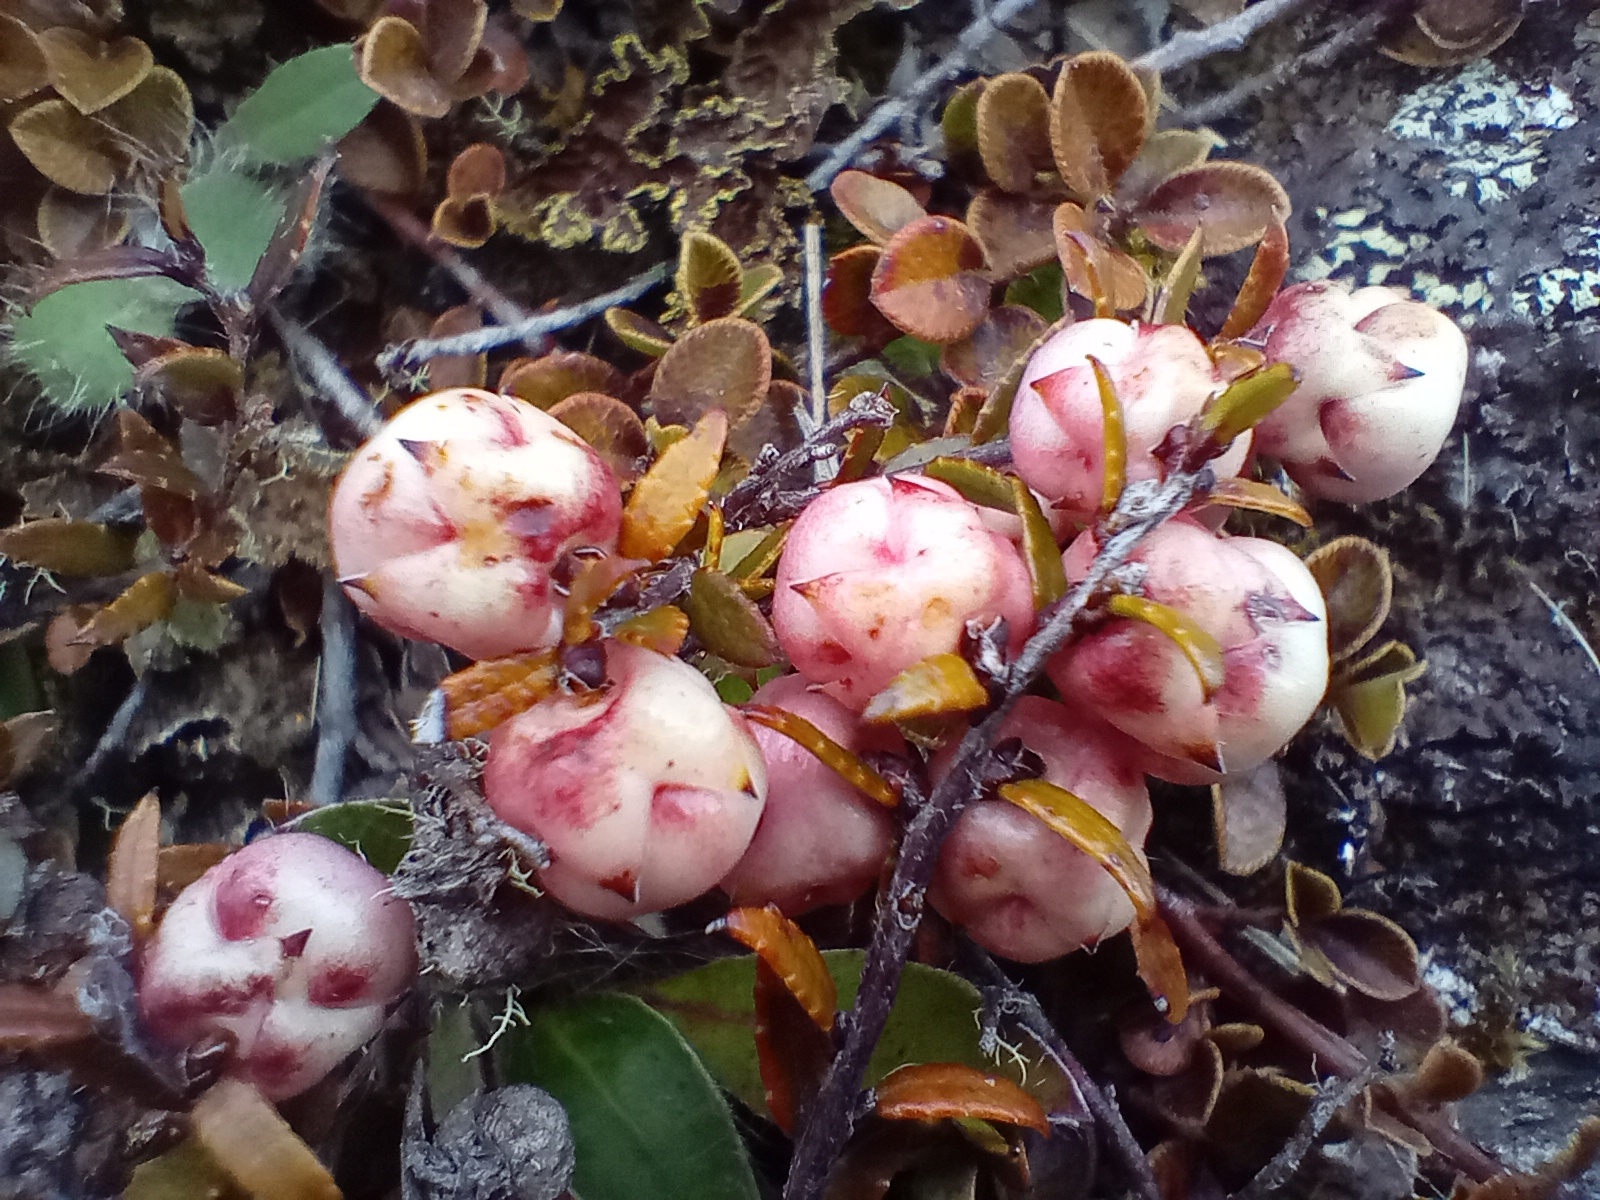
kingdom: Plantae
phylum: Tracheophyta
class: Magnoliopsida
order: Ericales
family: Ericaceae
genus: Gaultheria
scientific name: Gaultheria macrostigma
